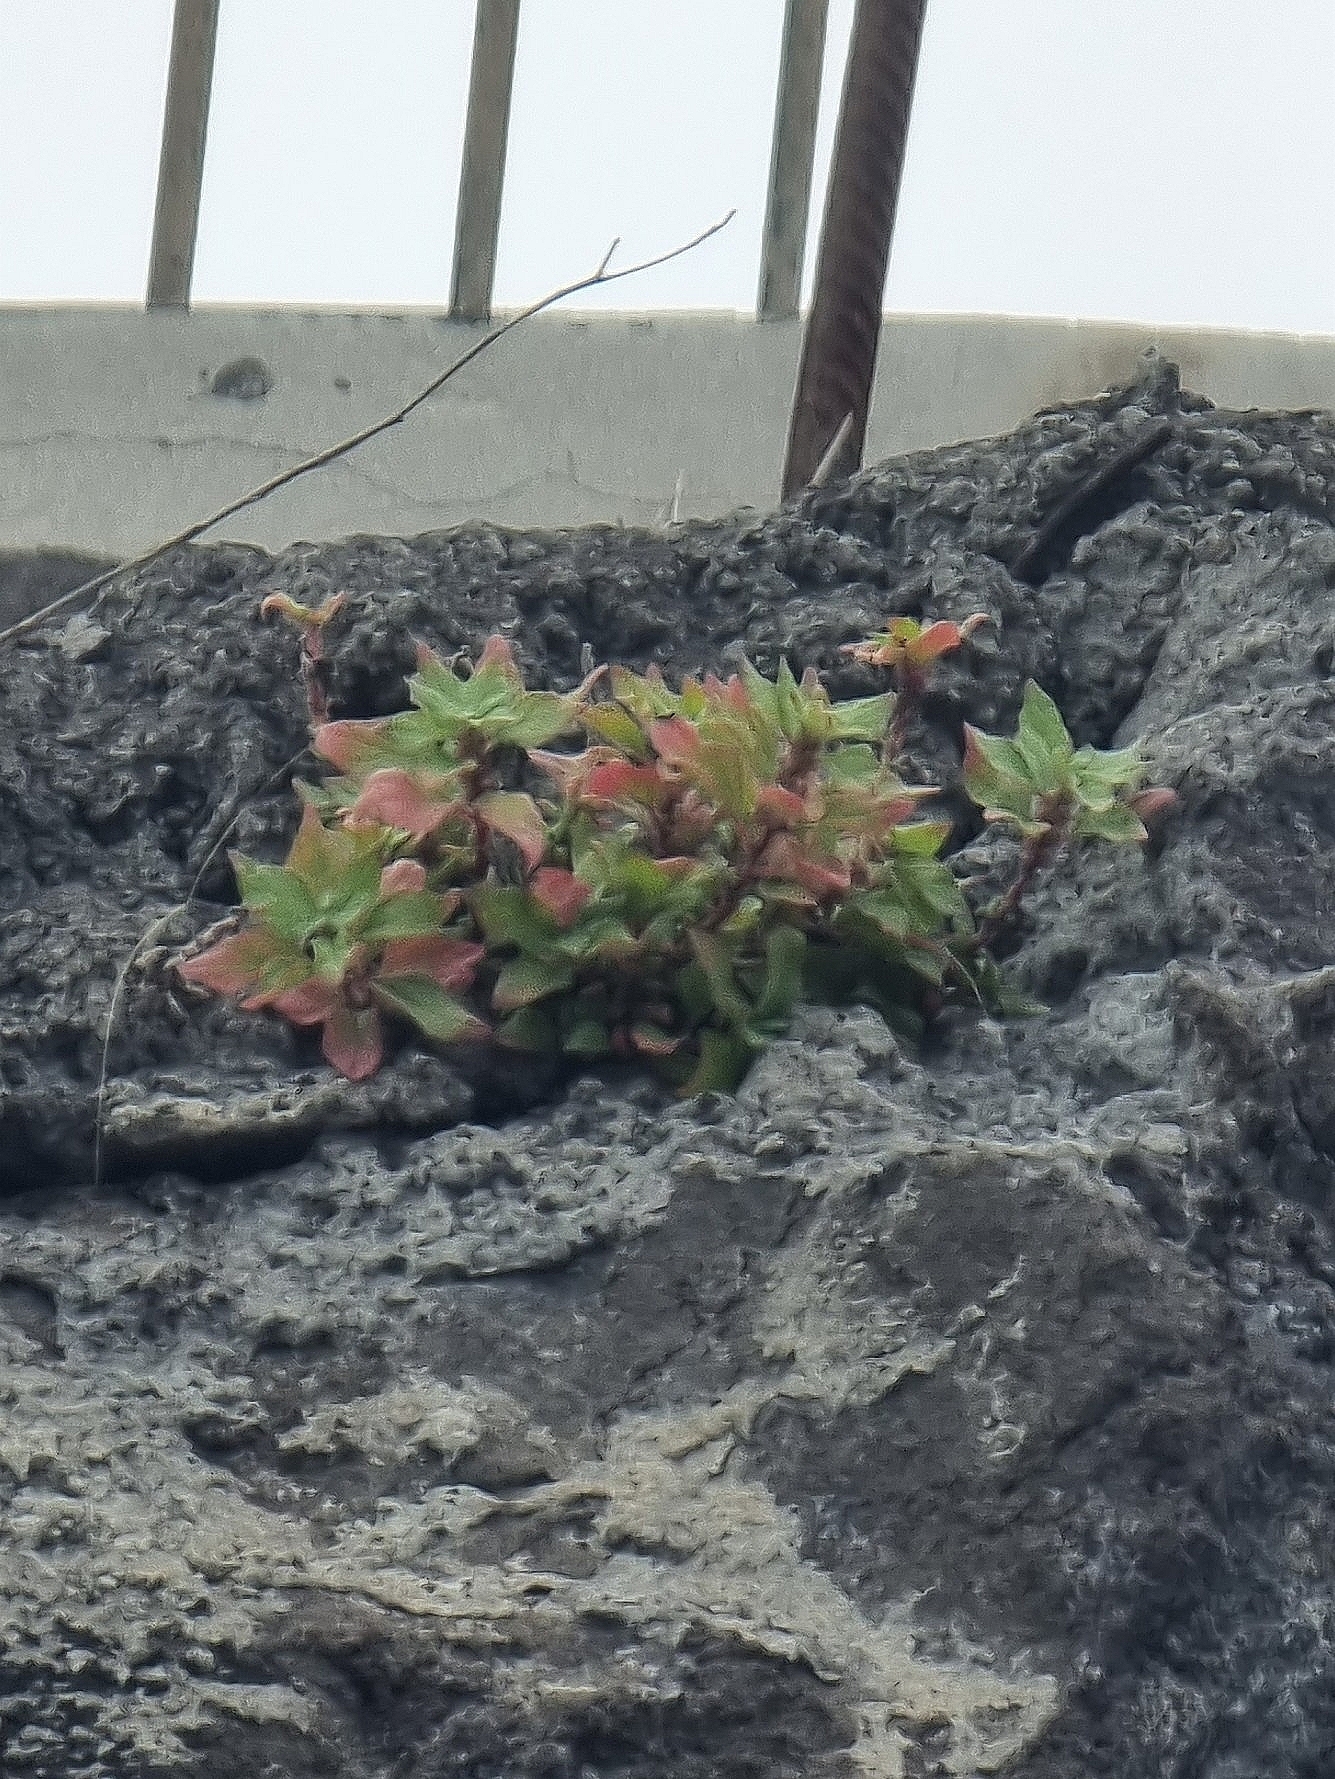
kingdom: Plantae
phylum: Tracheophyta
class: Magnoliopsida
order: Rosales
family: Urticaceae
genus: Parietaria
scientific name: Parietaria judaica
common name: Pellitory-of-the-wall
